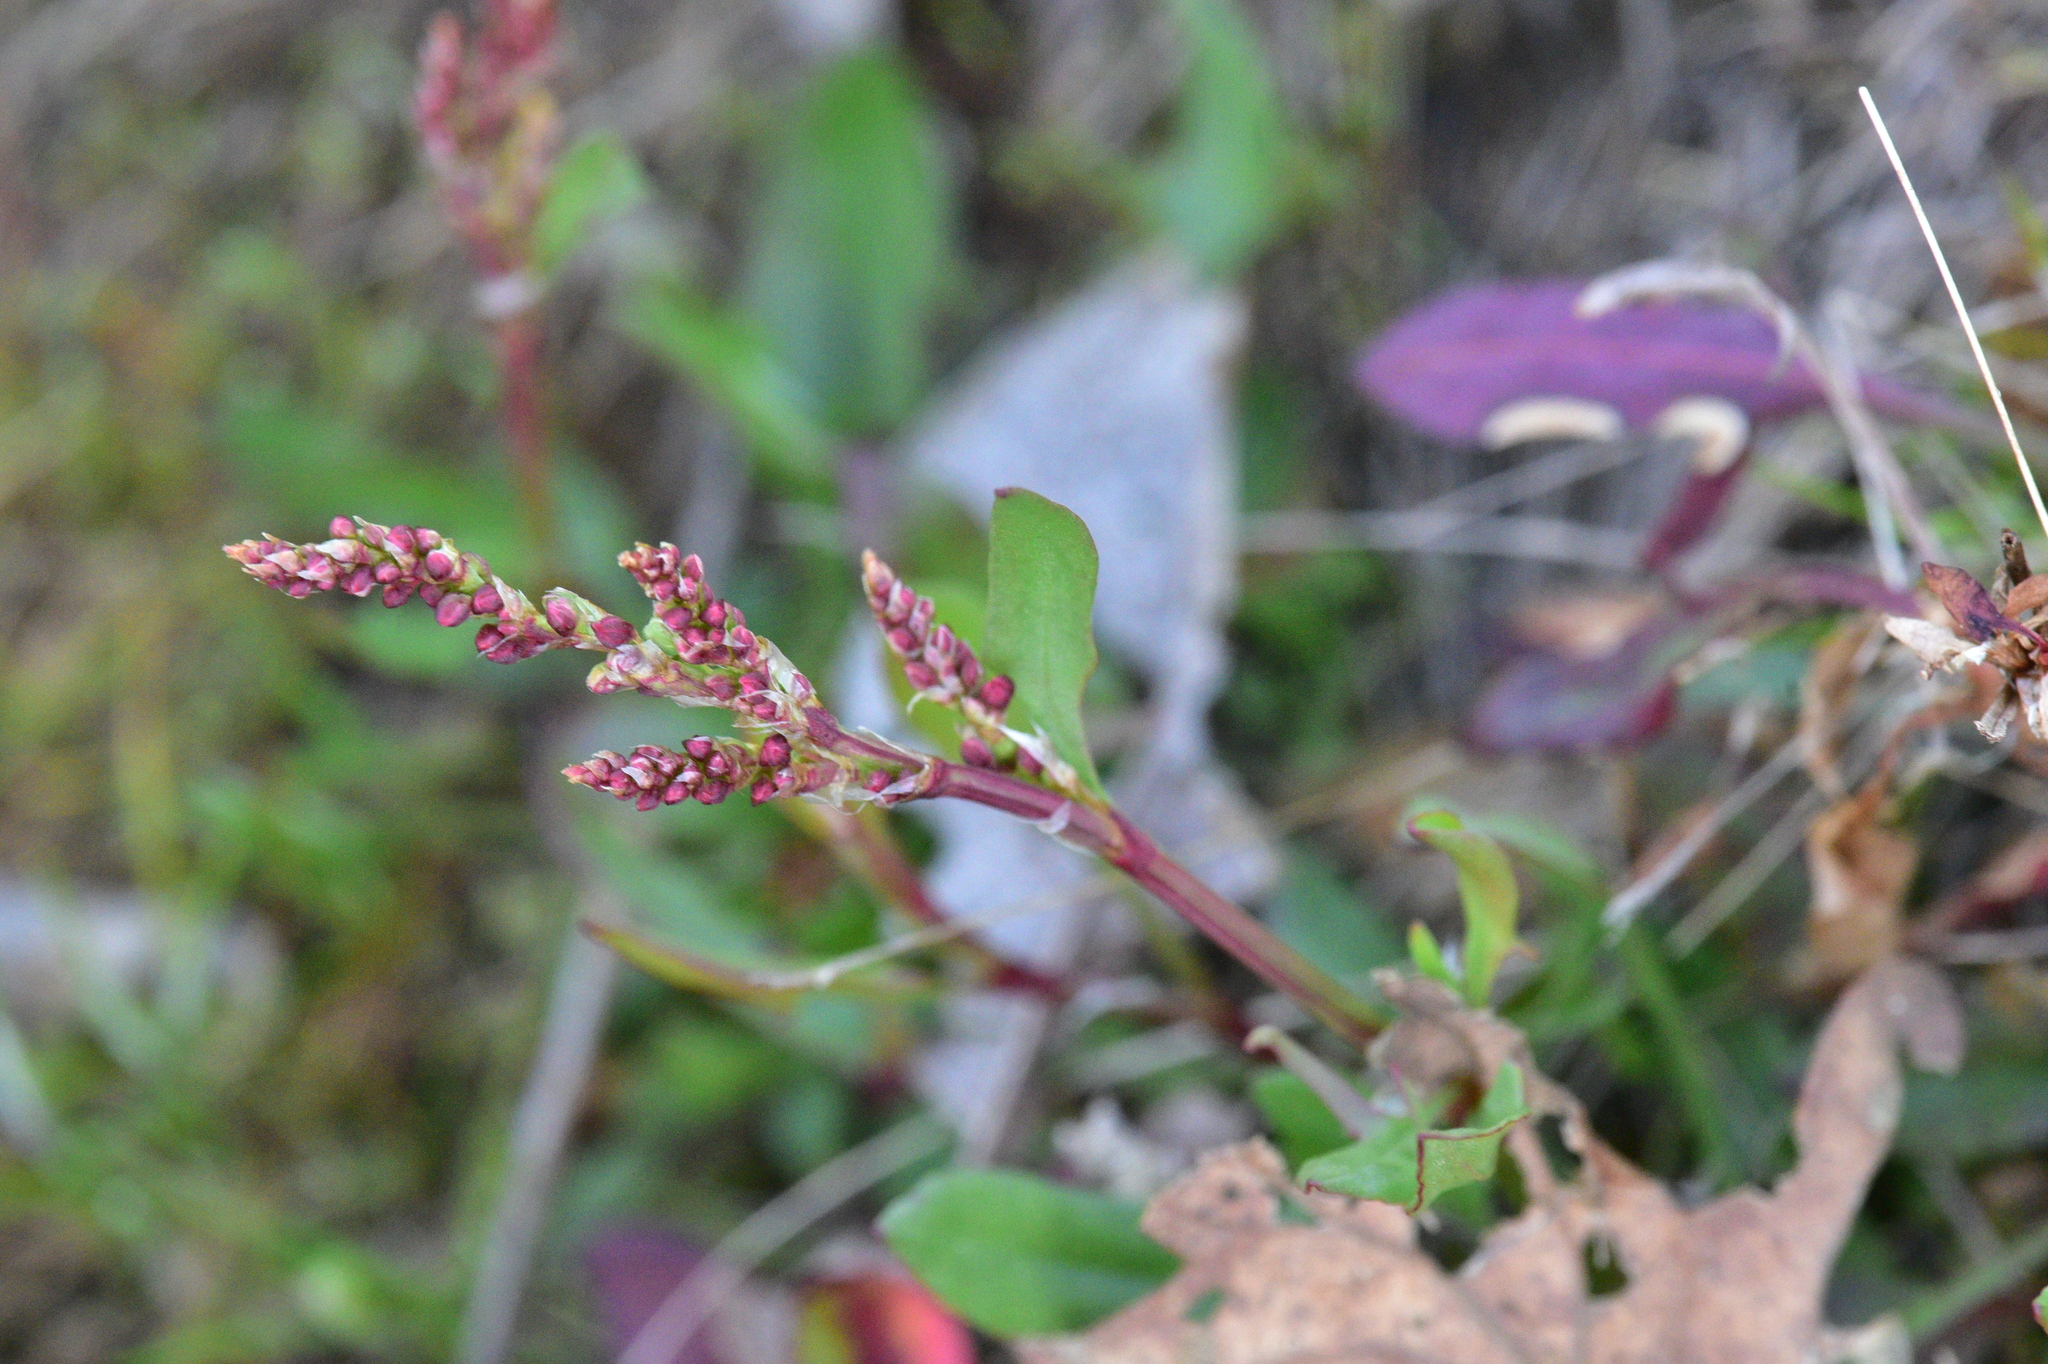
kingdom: Plantae
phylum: Tracheophyta
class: Magnoliopsida
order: Caryophyllales
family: Polygonaceae
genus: Rumex
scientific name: Rumex acetosella
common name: Common sheep sorrel
